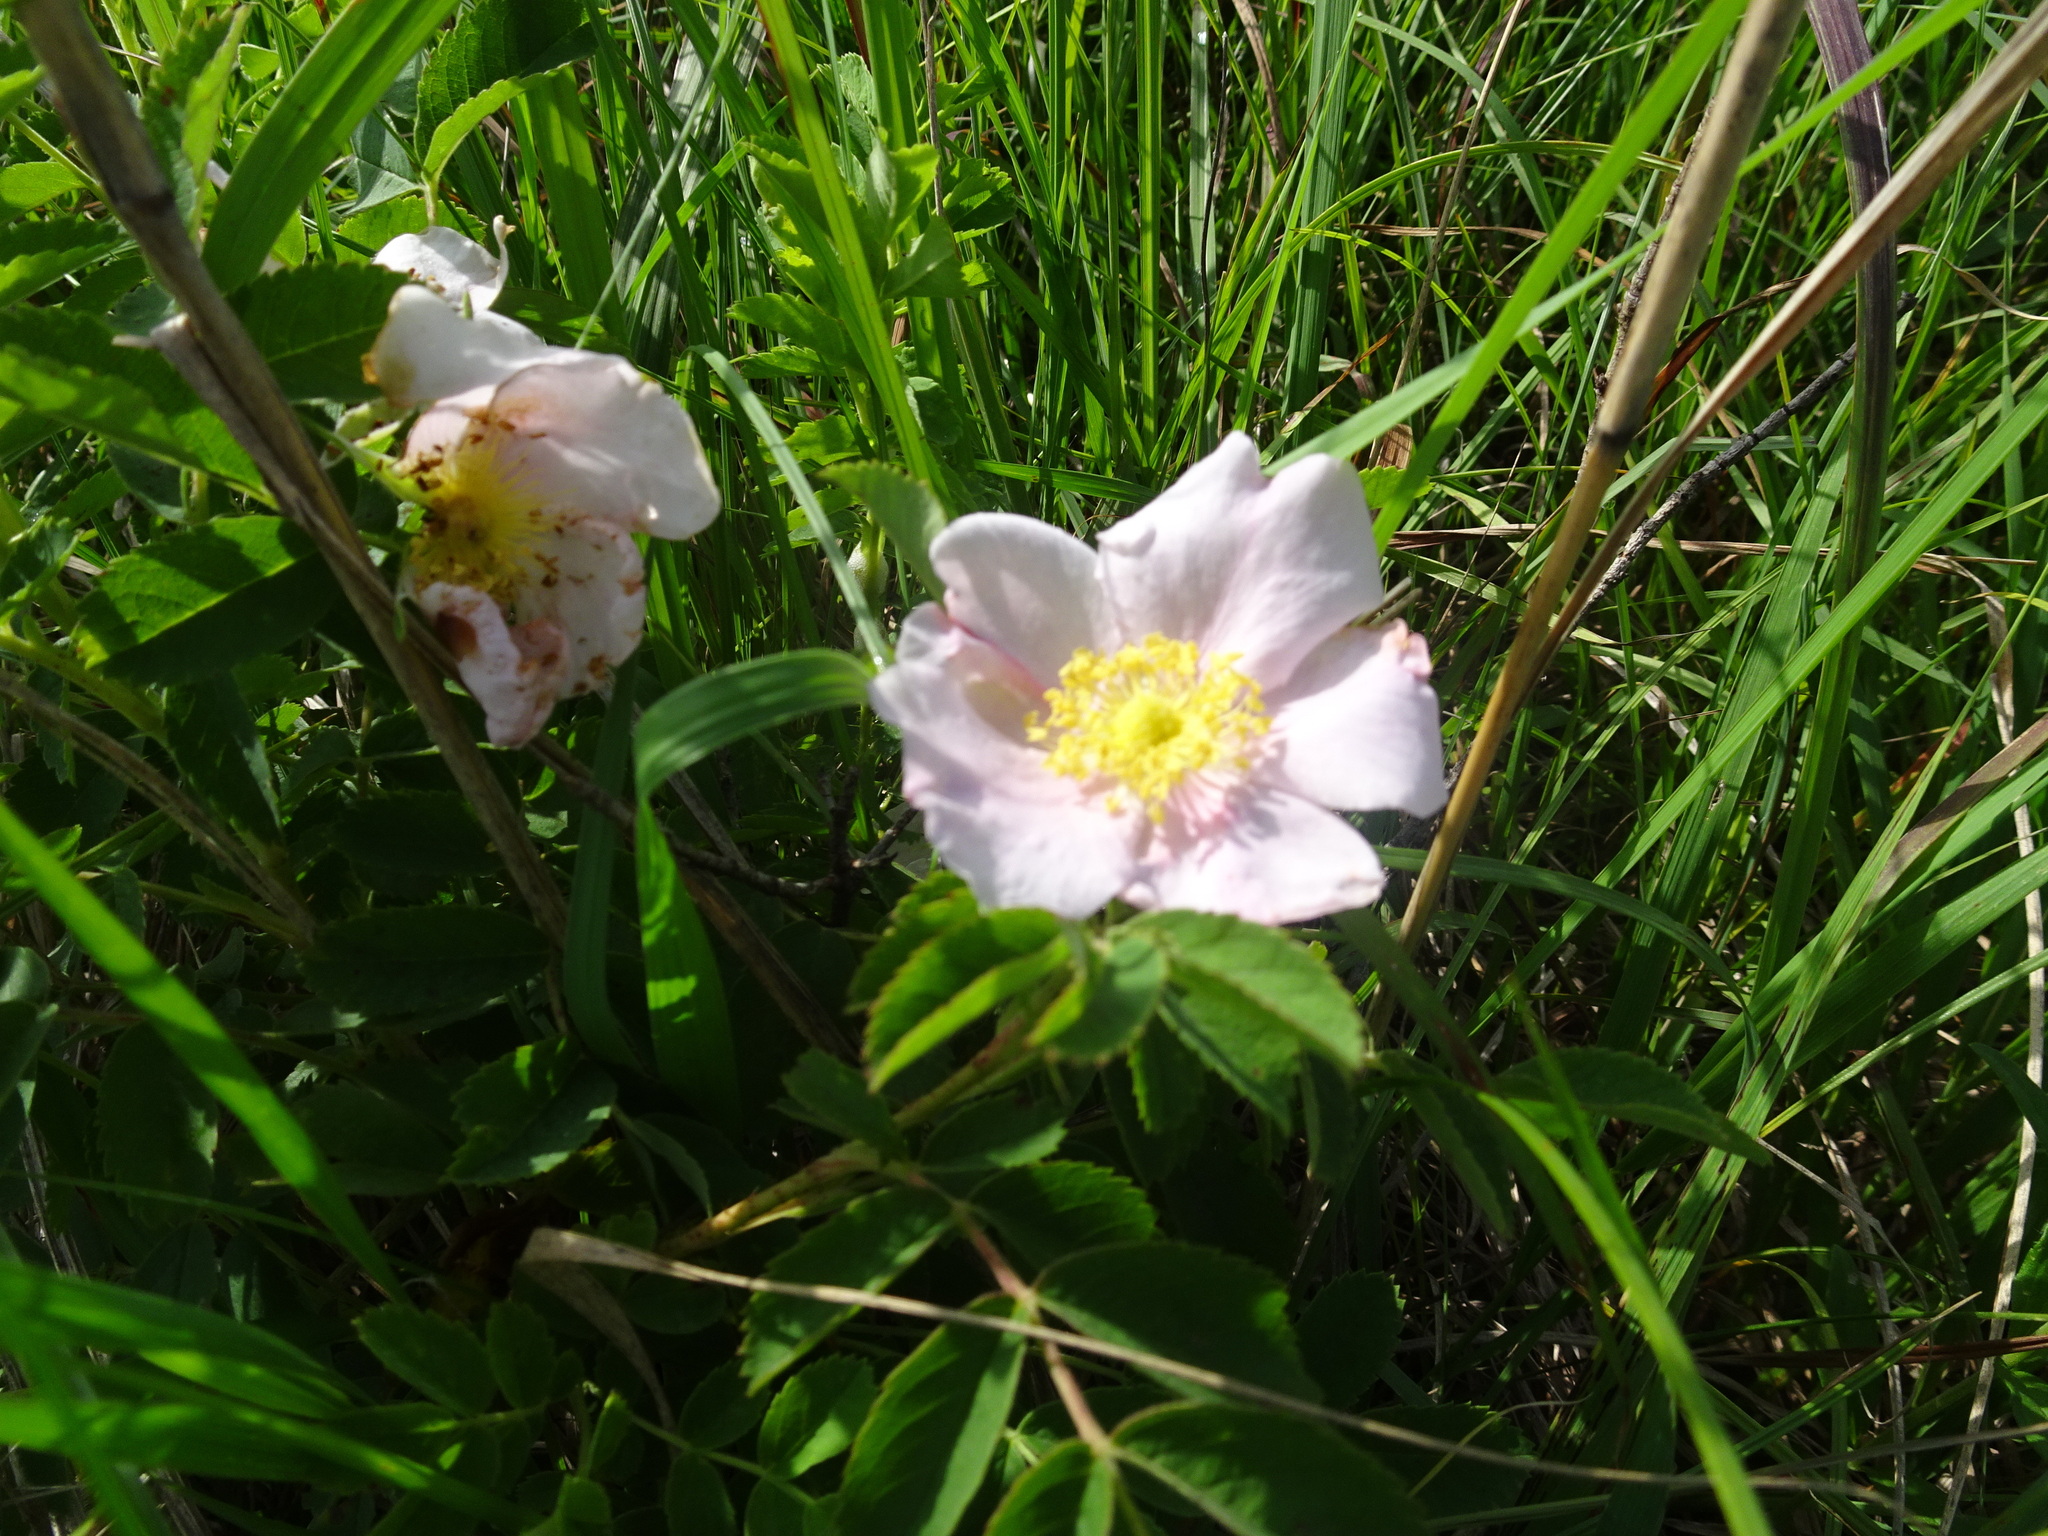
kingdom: Plantae
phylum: Tracheophyta
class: Magnoliopsida
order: Rosales
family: Rosaceae
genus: Rosa
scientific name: Rosa arkansana
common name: Prairie rose
